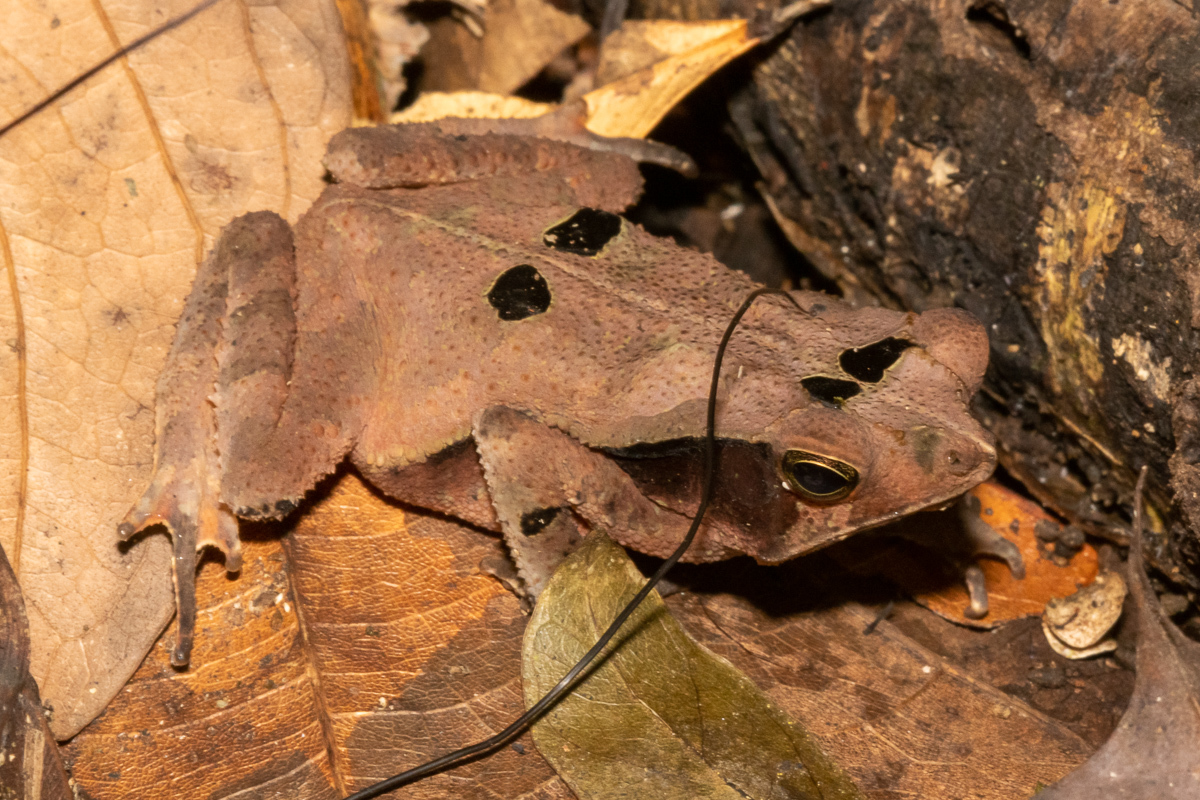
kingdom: Animalia
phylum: Chordata
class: Amphibia
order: Anura
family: Bufonidae
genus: Rhinella
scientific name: Rhinella margaritifera
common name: Mitred toad
